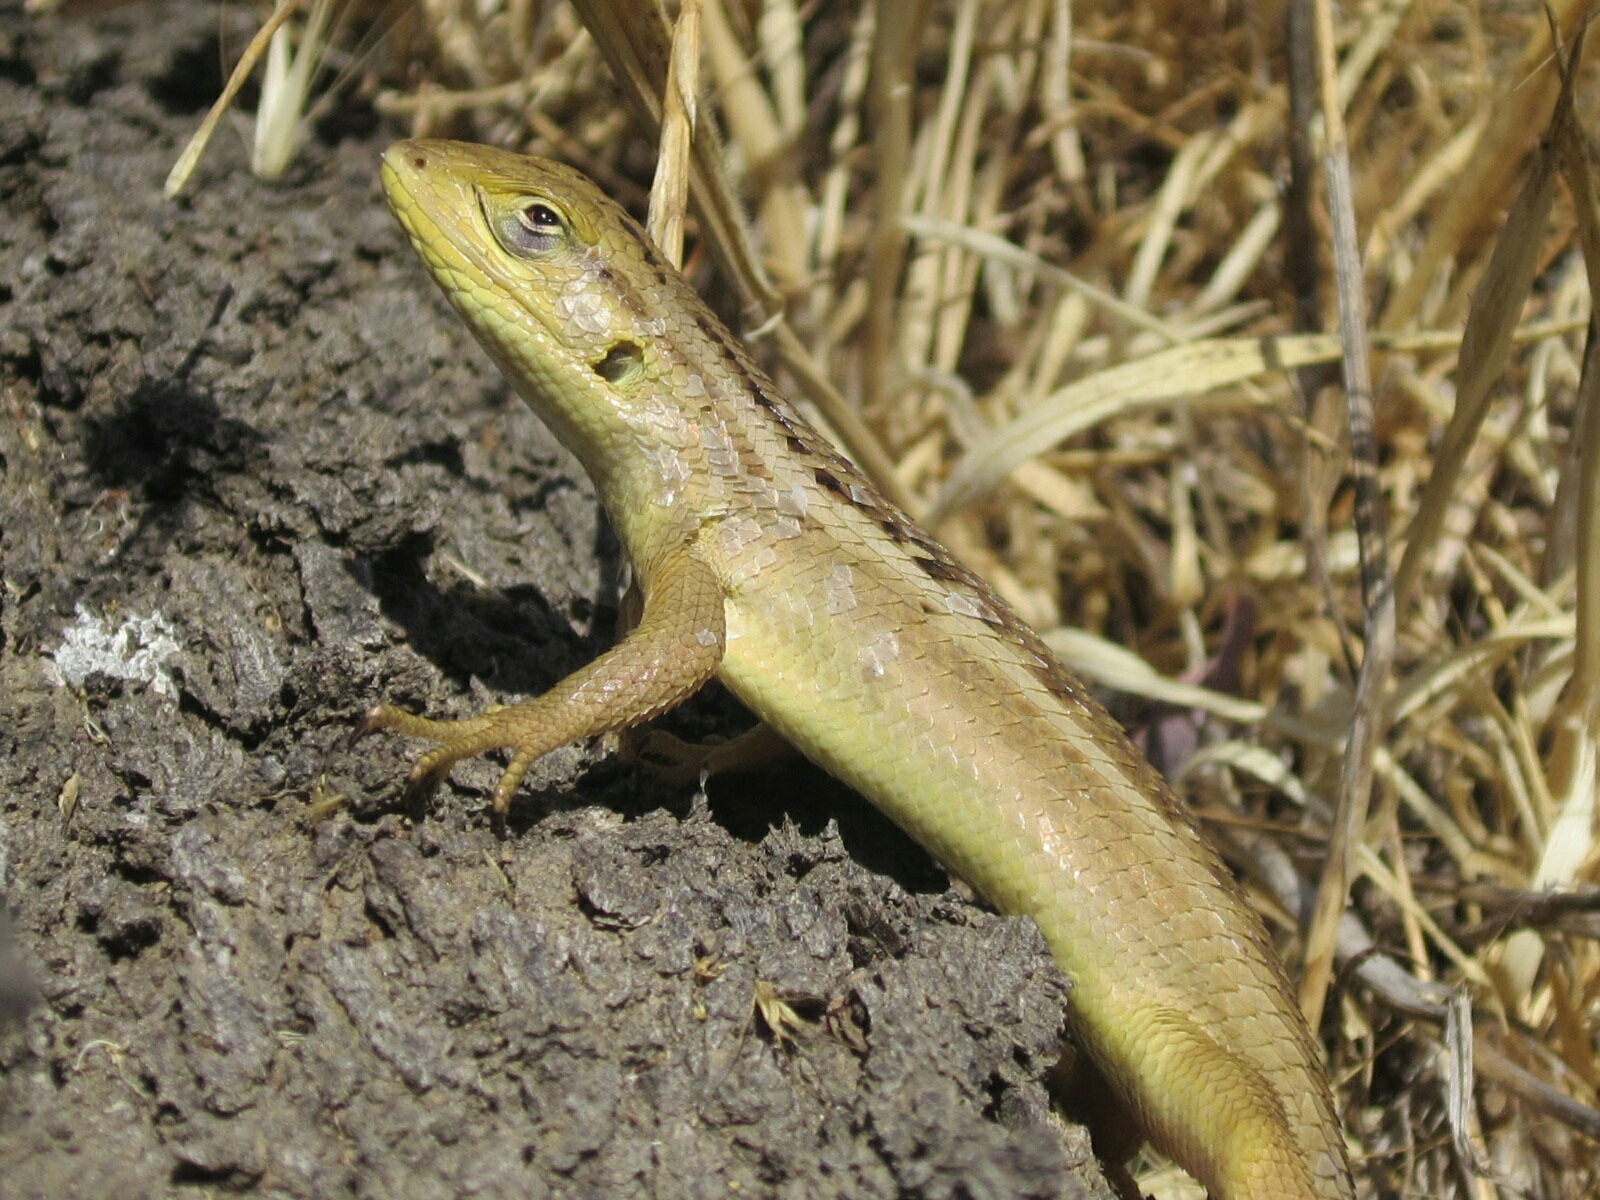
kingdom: Animalia
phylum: Chordata
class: Squamata
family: Liolaemidae
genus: Liolaemus
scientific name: Liolaemus chiliensis
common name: Chilean tree iguana
